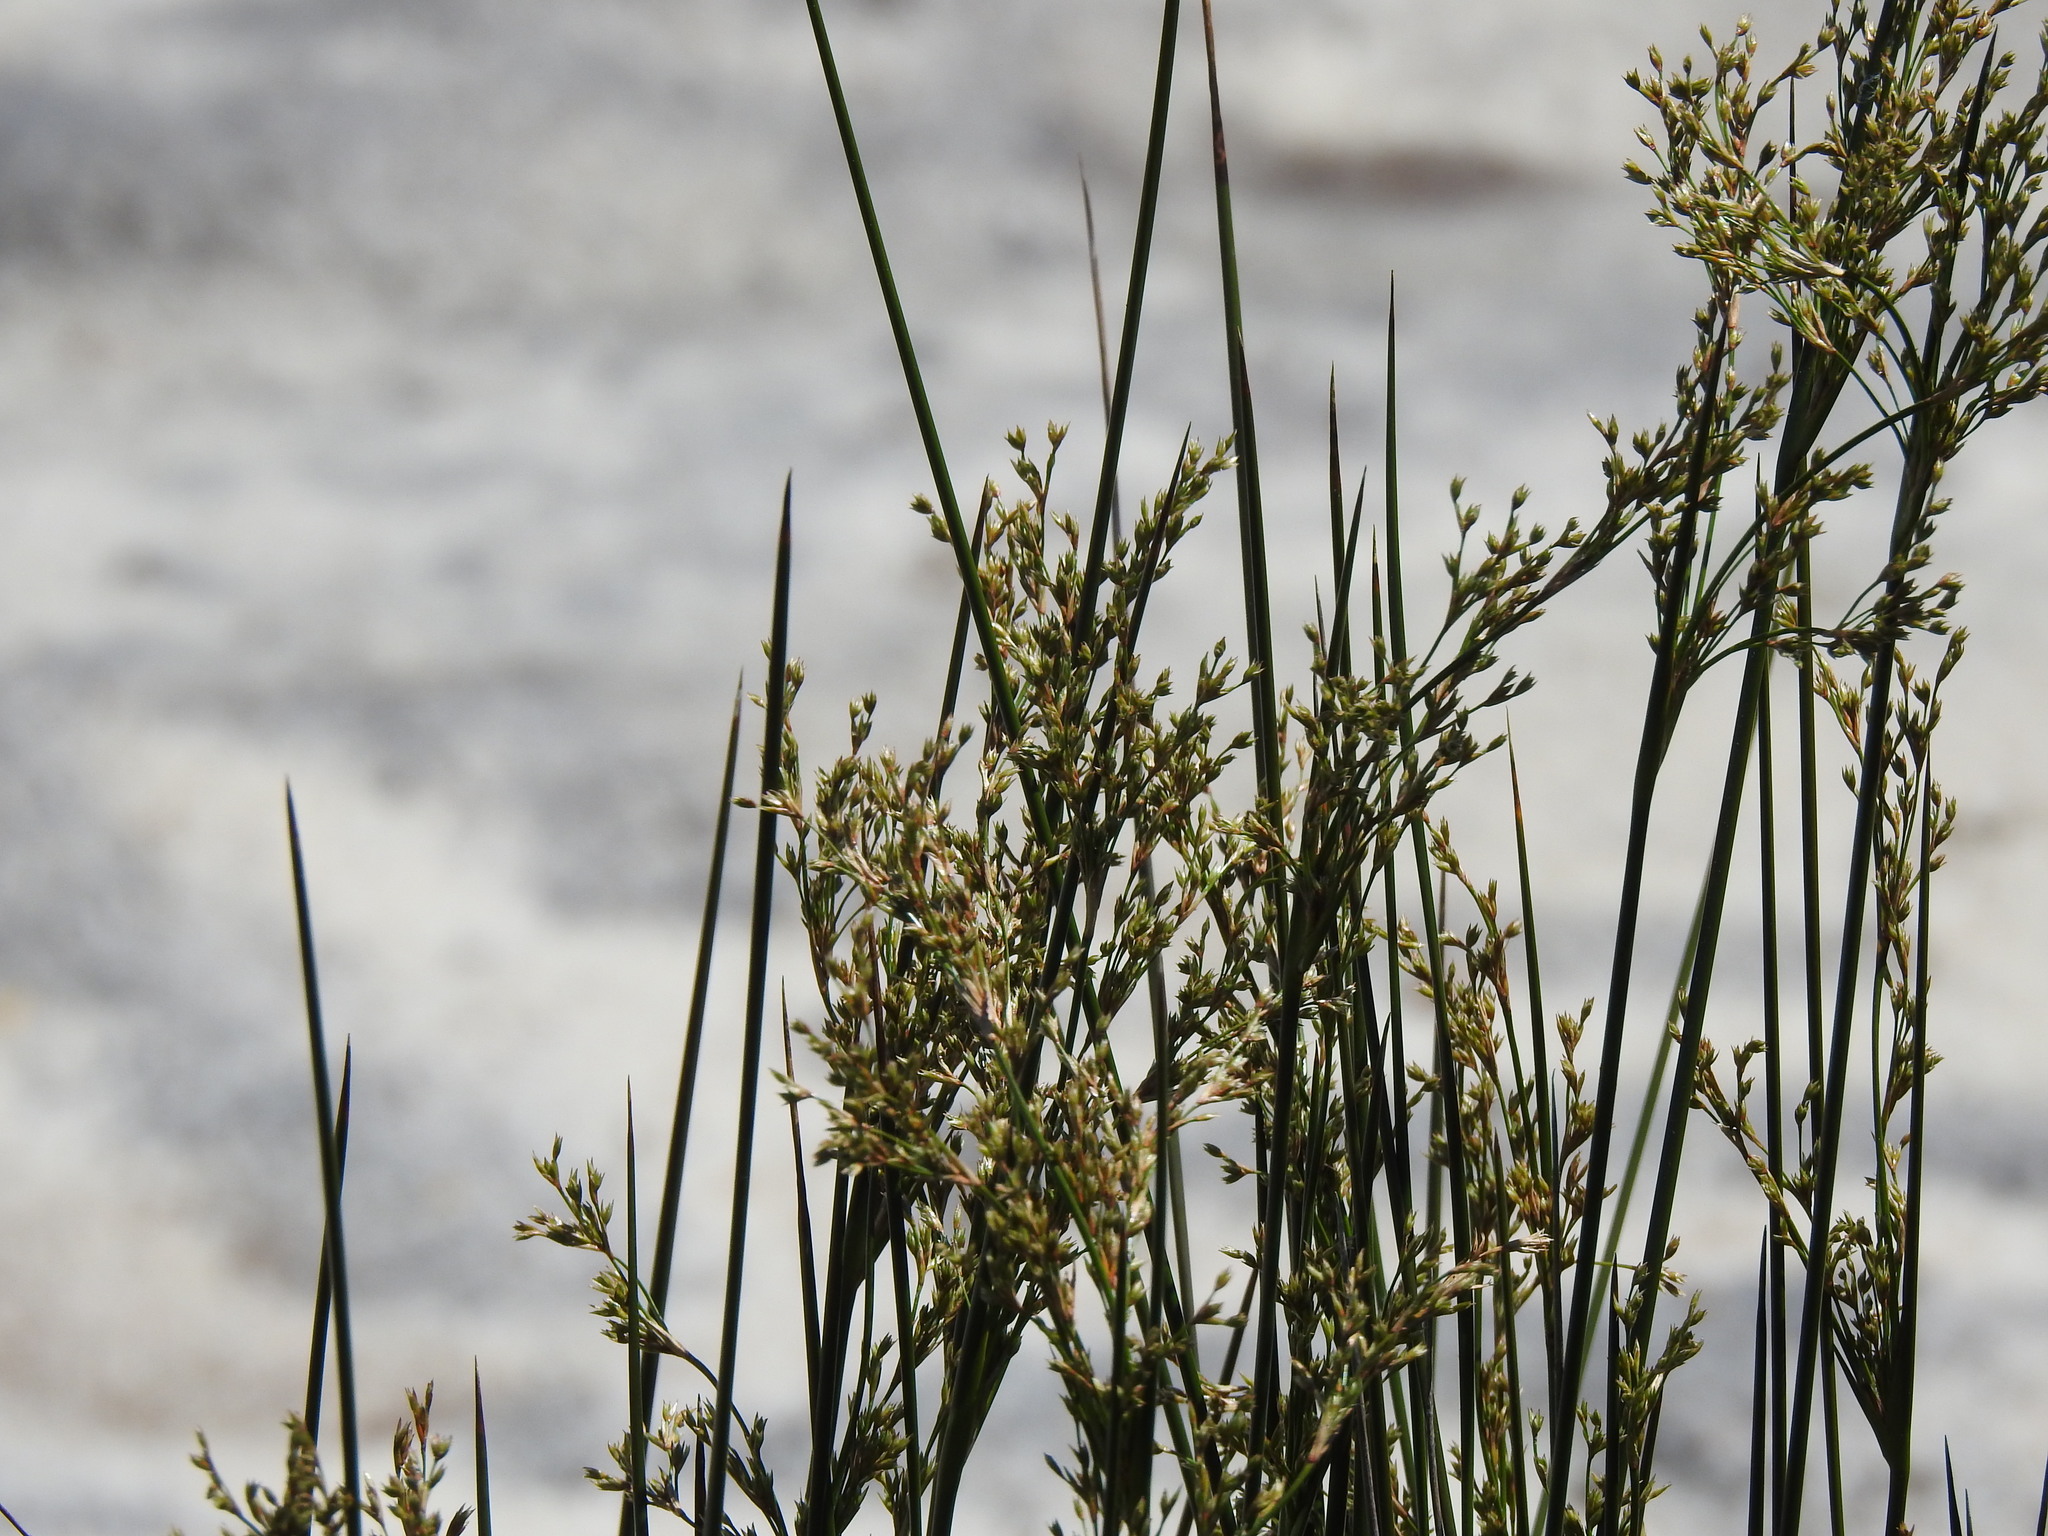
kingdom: Plantae
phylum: Tracheophyta
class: Liliopsida
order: Poales
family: Juncaceae
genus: Juncus
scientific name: Juncus maritimus
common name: Sea rush
